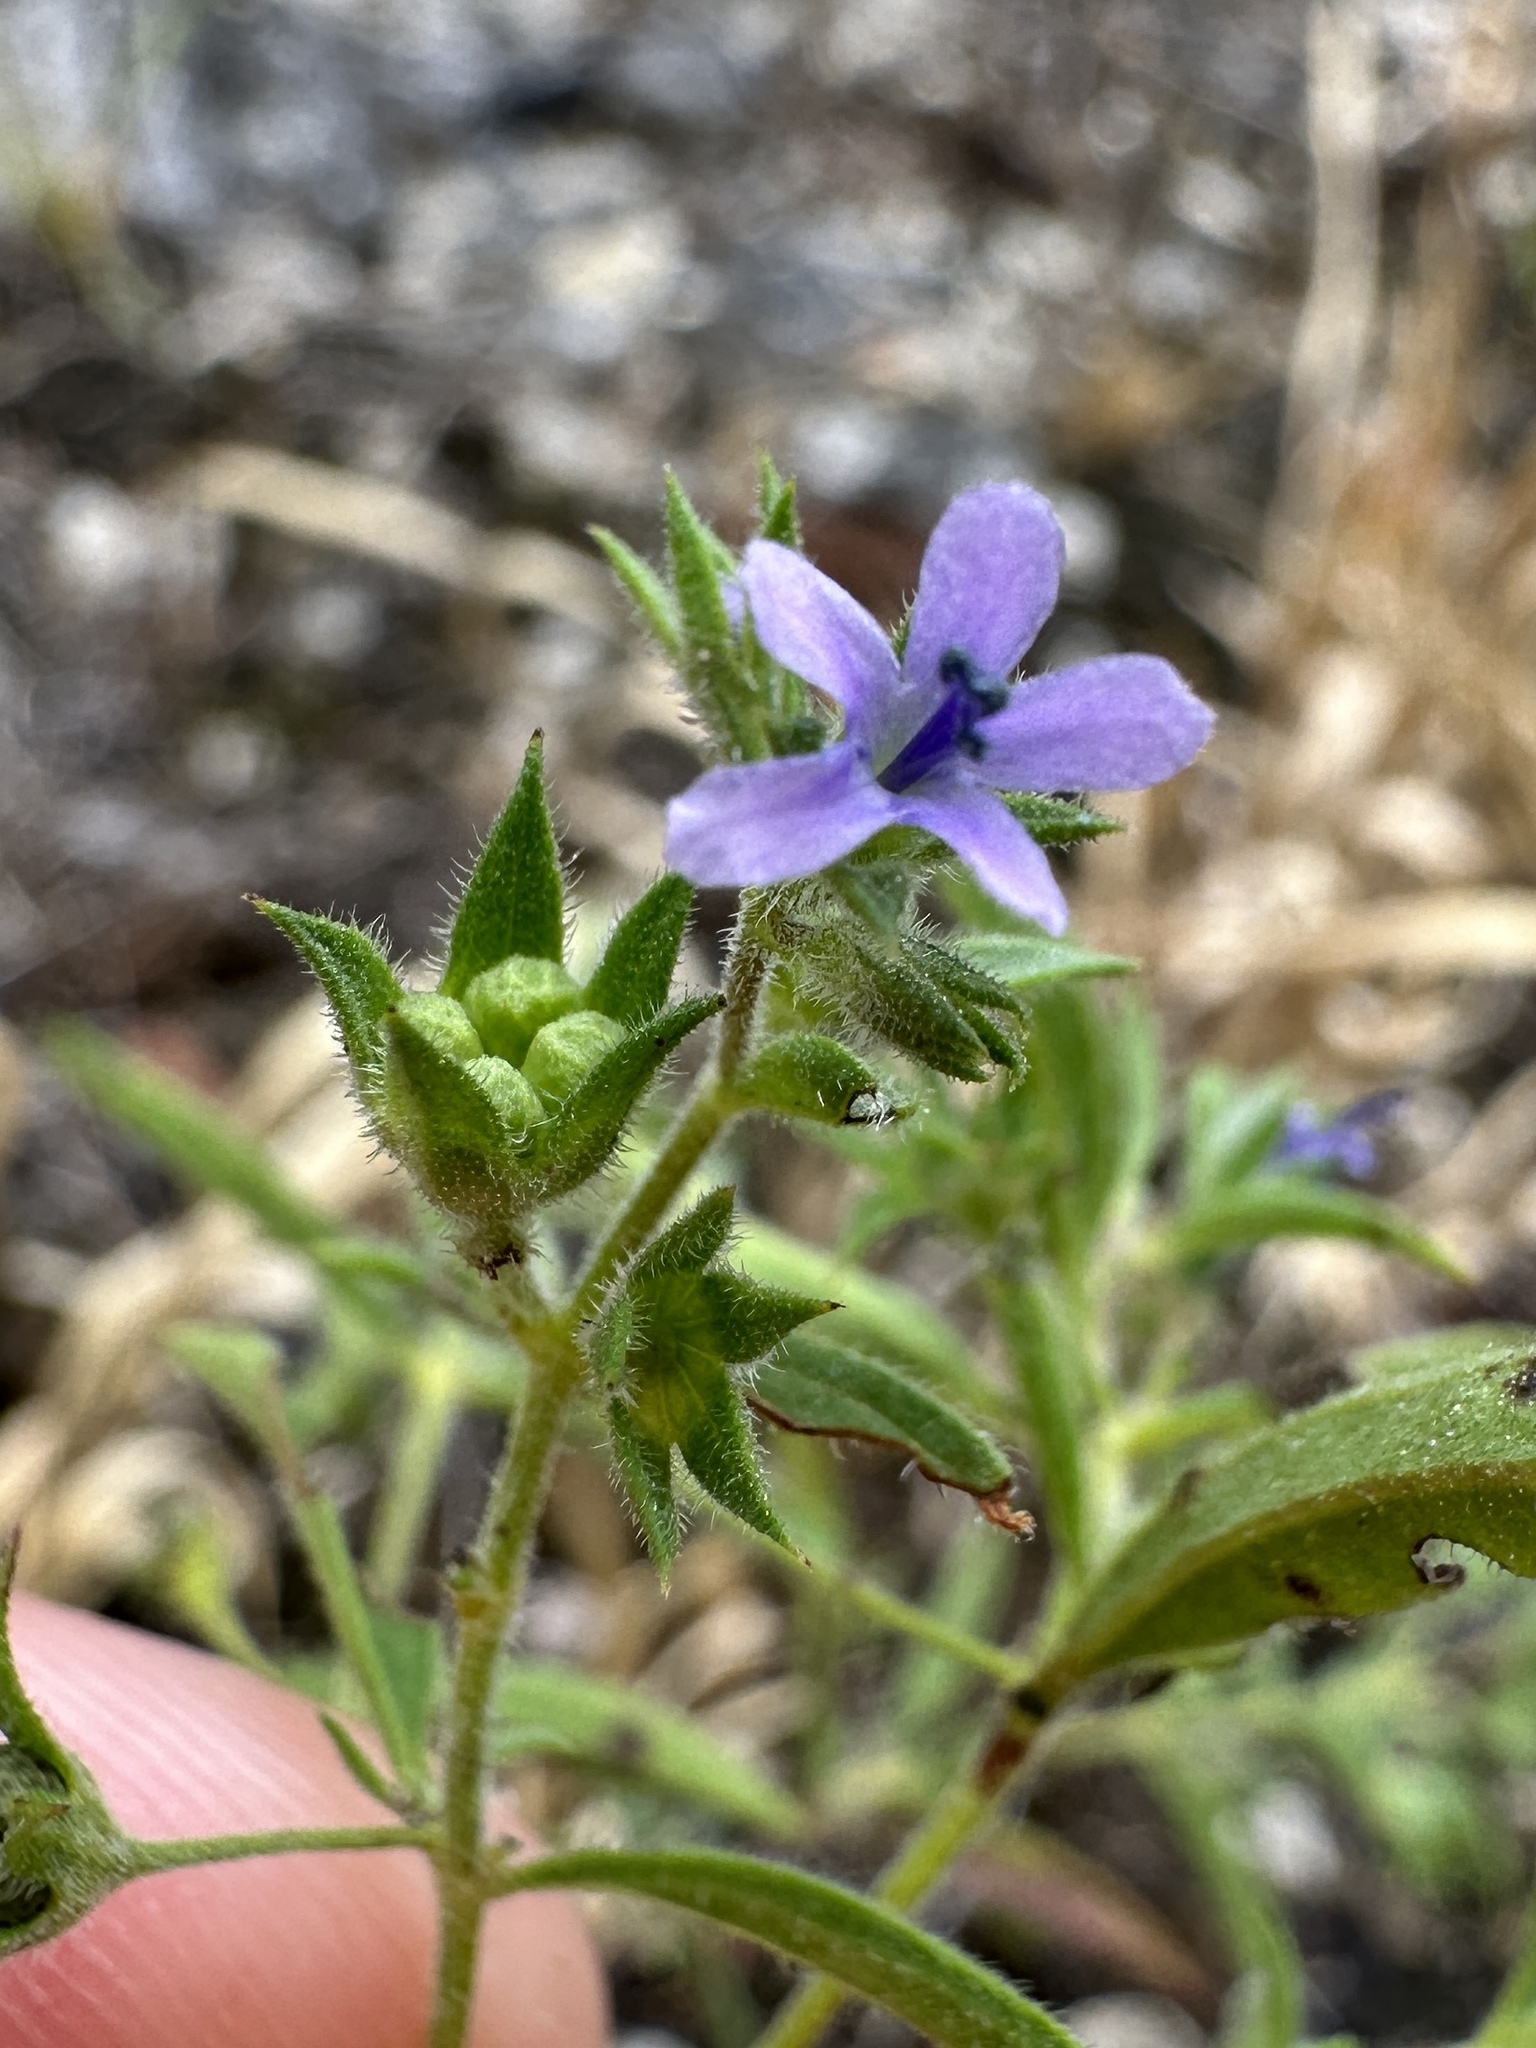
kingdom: Plantae
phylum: Tracheophyta
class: Magnoliopsida
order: Lamiales
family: Lamiaceae
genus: Trichostema
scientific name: Trichostema brachiatum
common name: False pennyroyal
